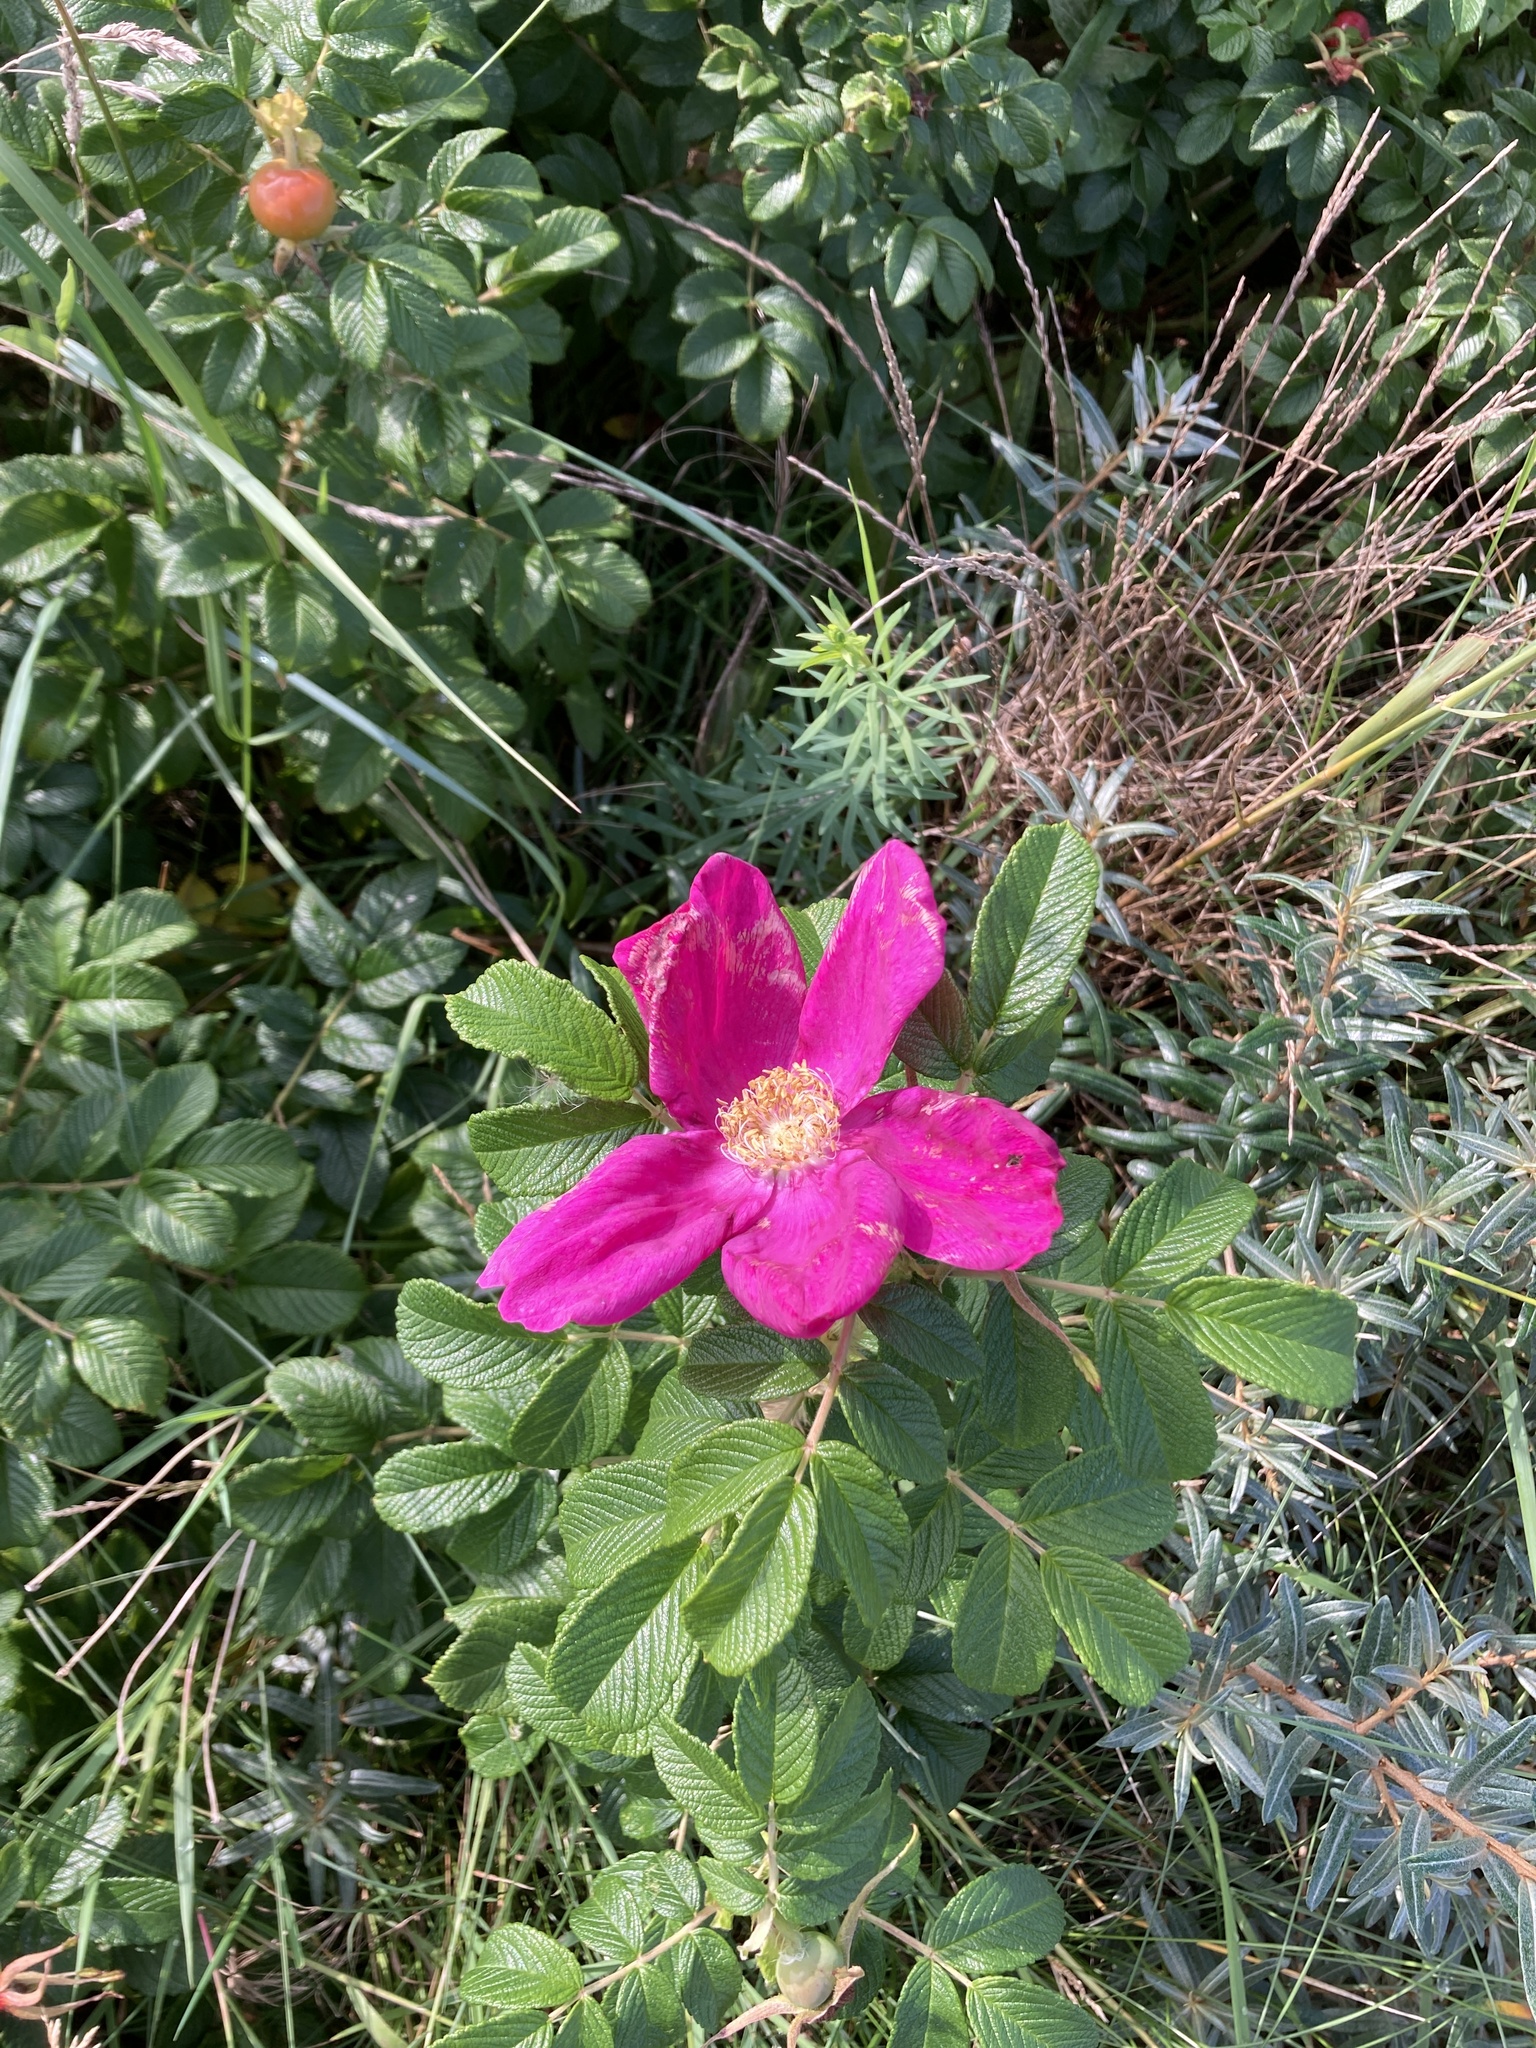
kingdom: Plantae
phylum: Tracheophyta
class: Magnoliopsida
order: Rosales
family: Rosaceae
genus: Rosa
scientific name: Rosa rugosa
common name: Japanese rose
